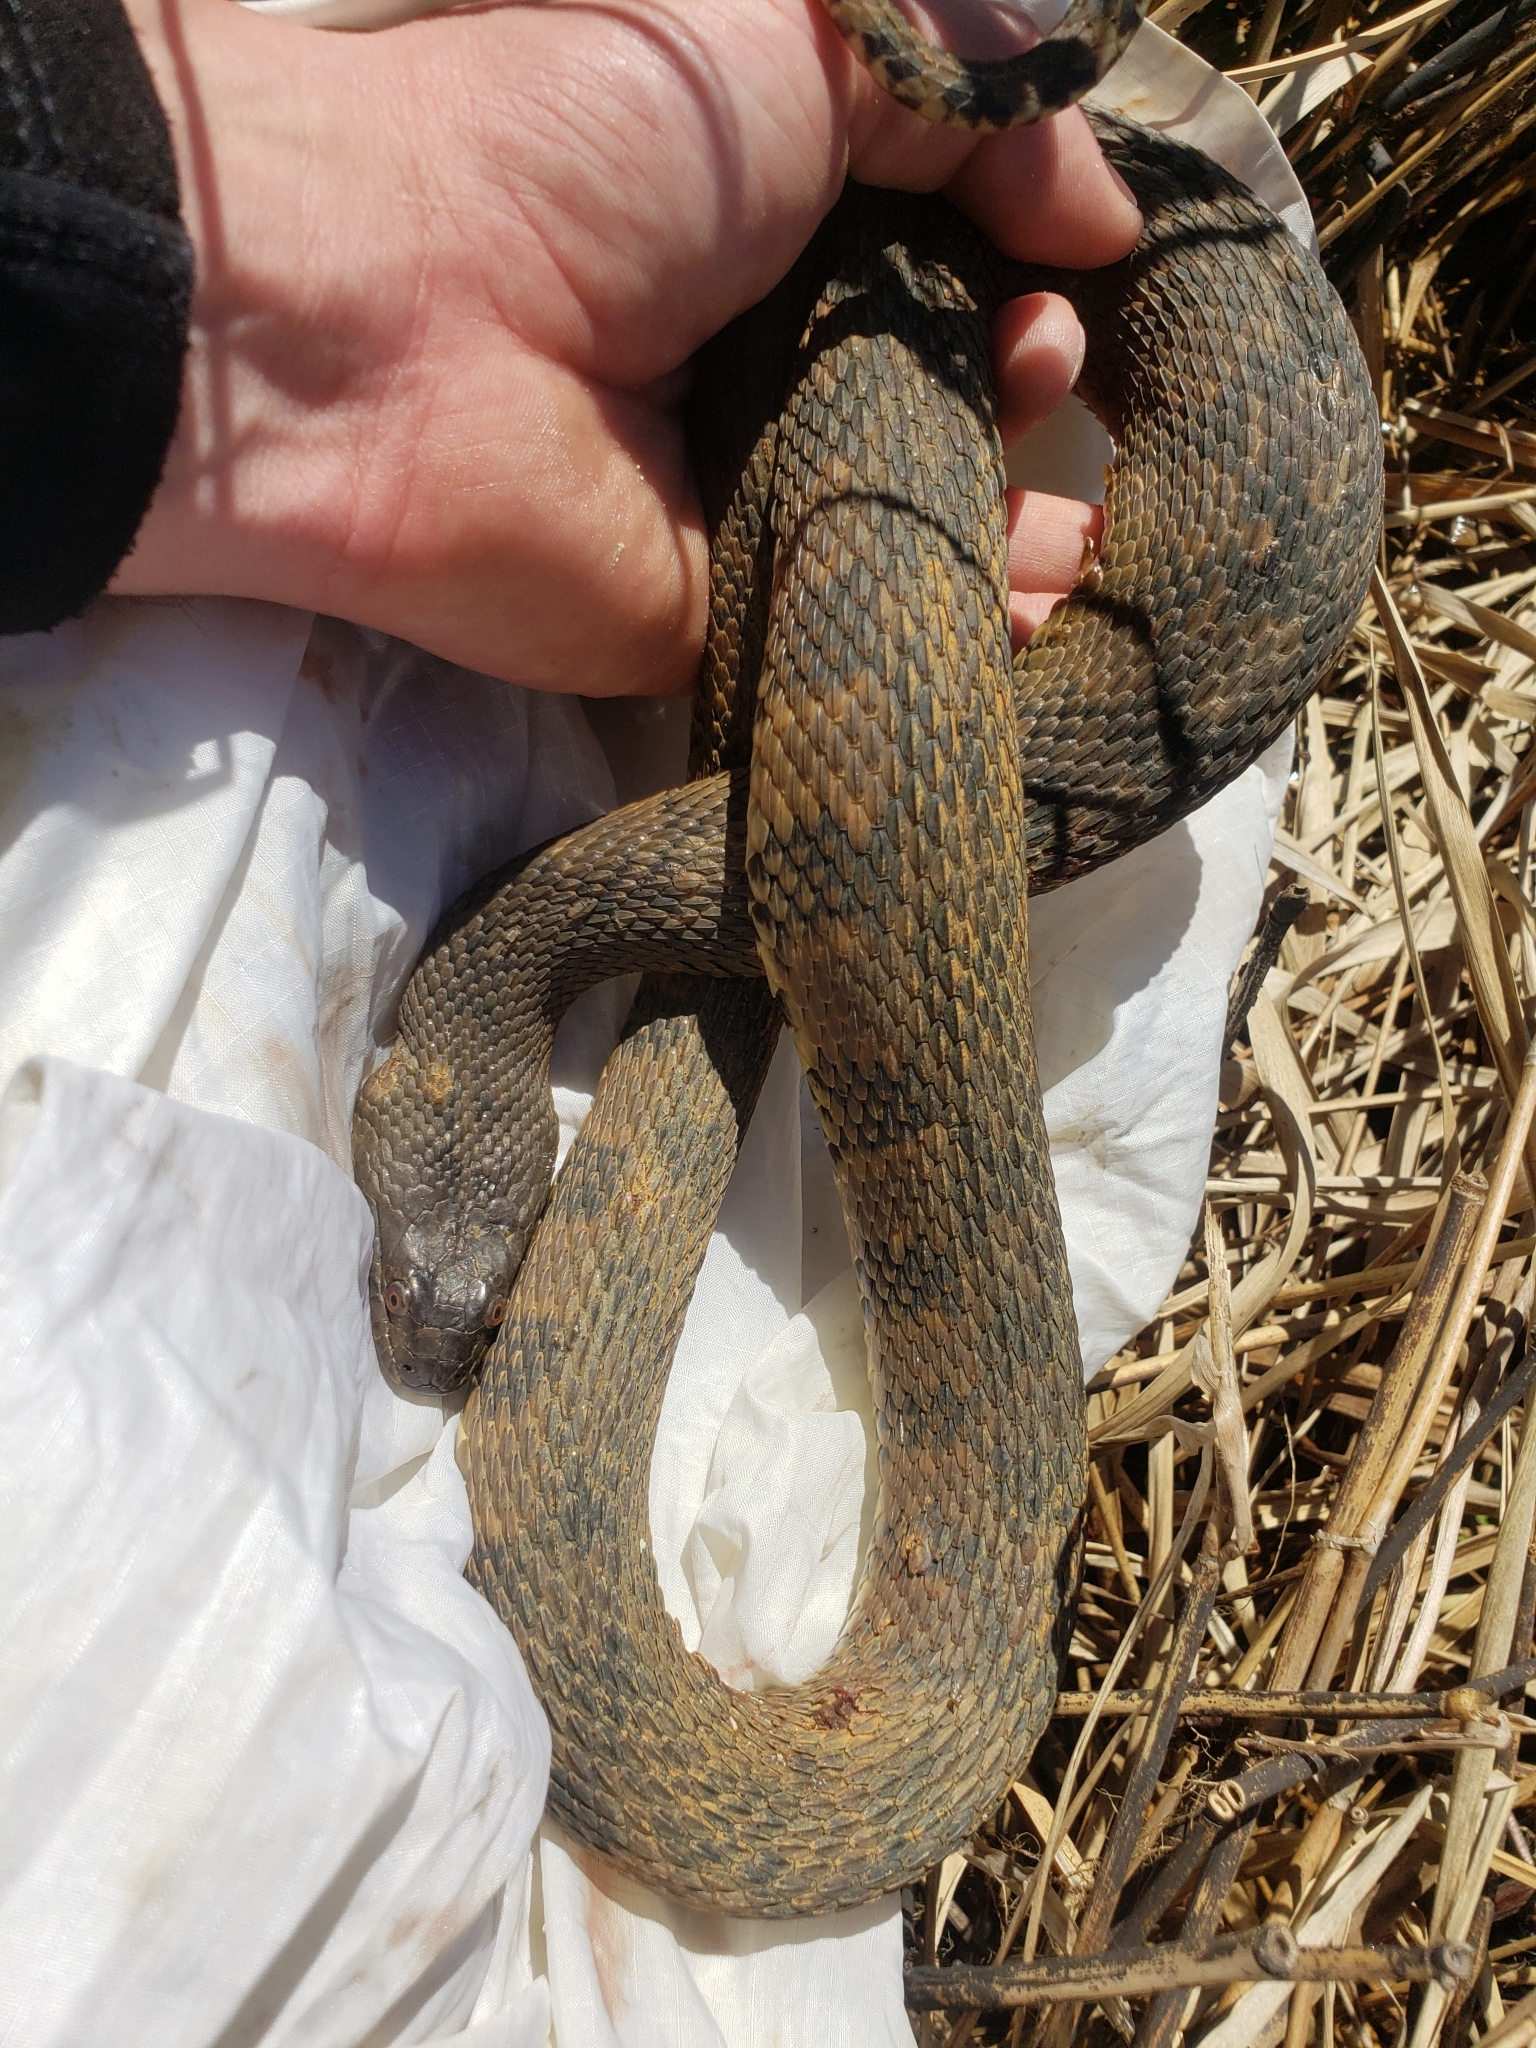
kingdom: Animalia
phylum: Chordata
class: Squamata
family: Colubridae
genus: Nerodia
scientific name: Nerodia rhombifer
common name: Diamondback water snake
